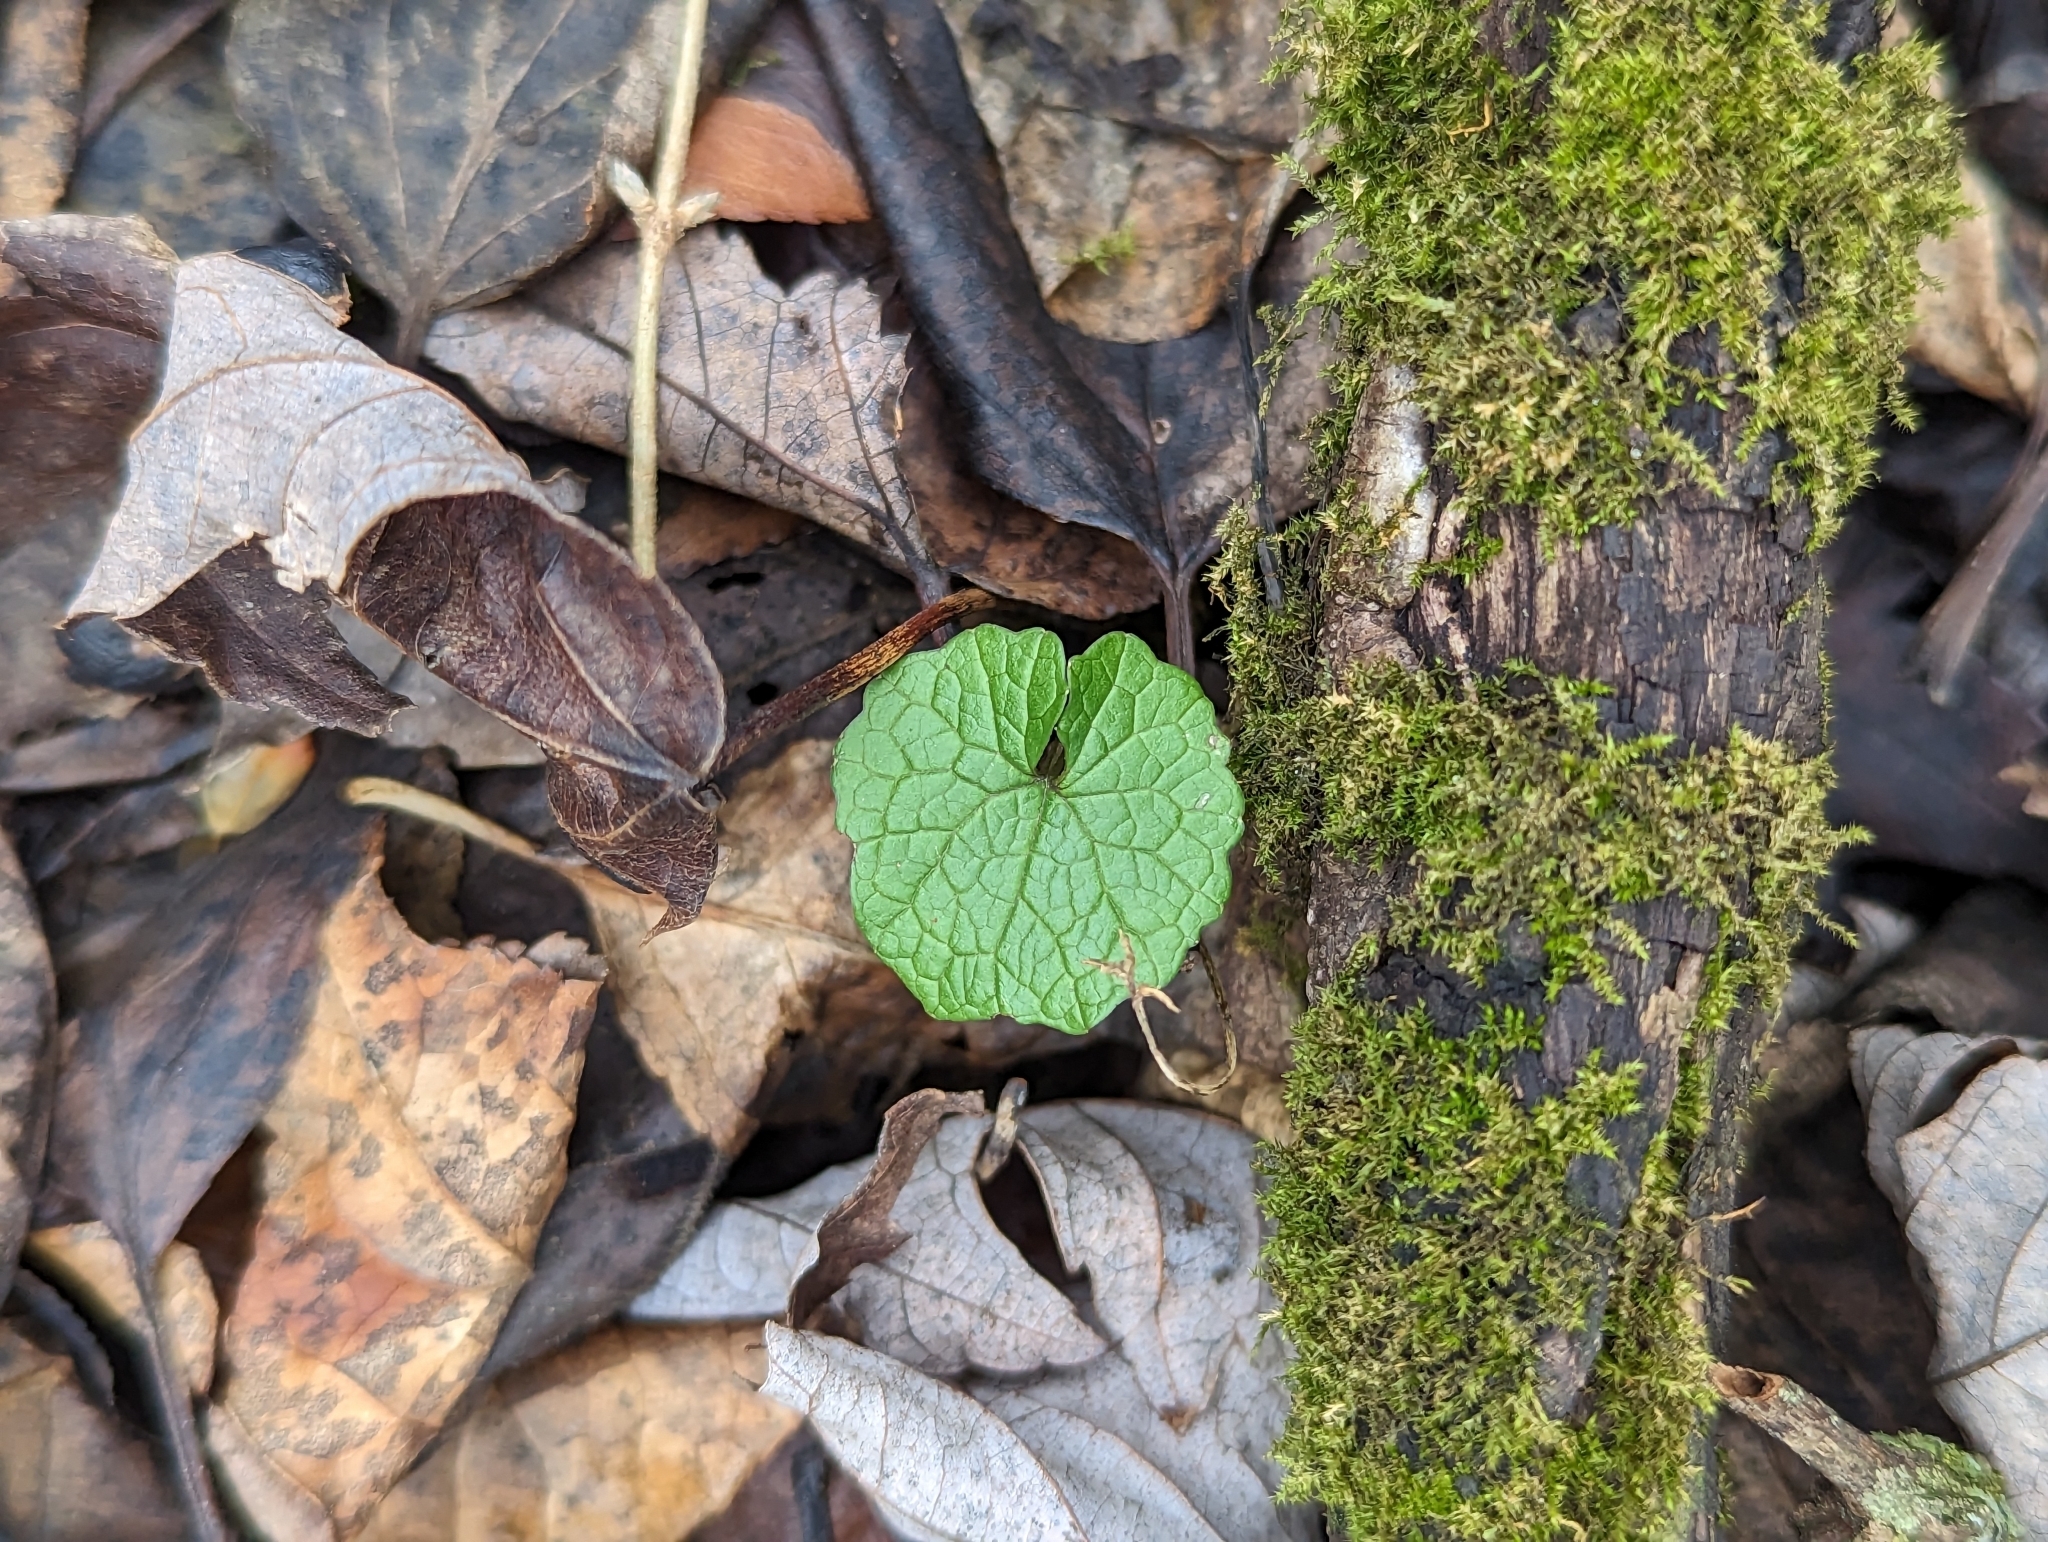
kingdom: Plantae
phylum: Tracheophyta
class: Magnoliopsida
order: Brassicales
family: Brassicaceae
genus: Alliaria
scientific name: Alliaria petiolata
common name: Garlic mustard
